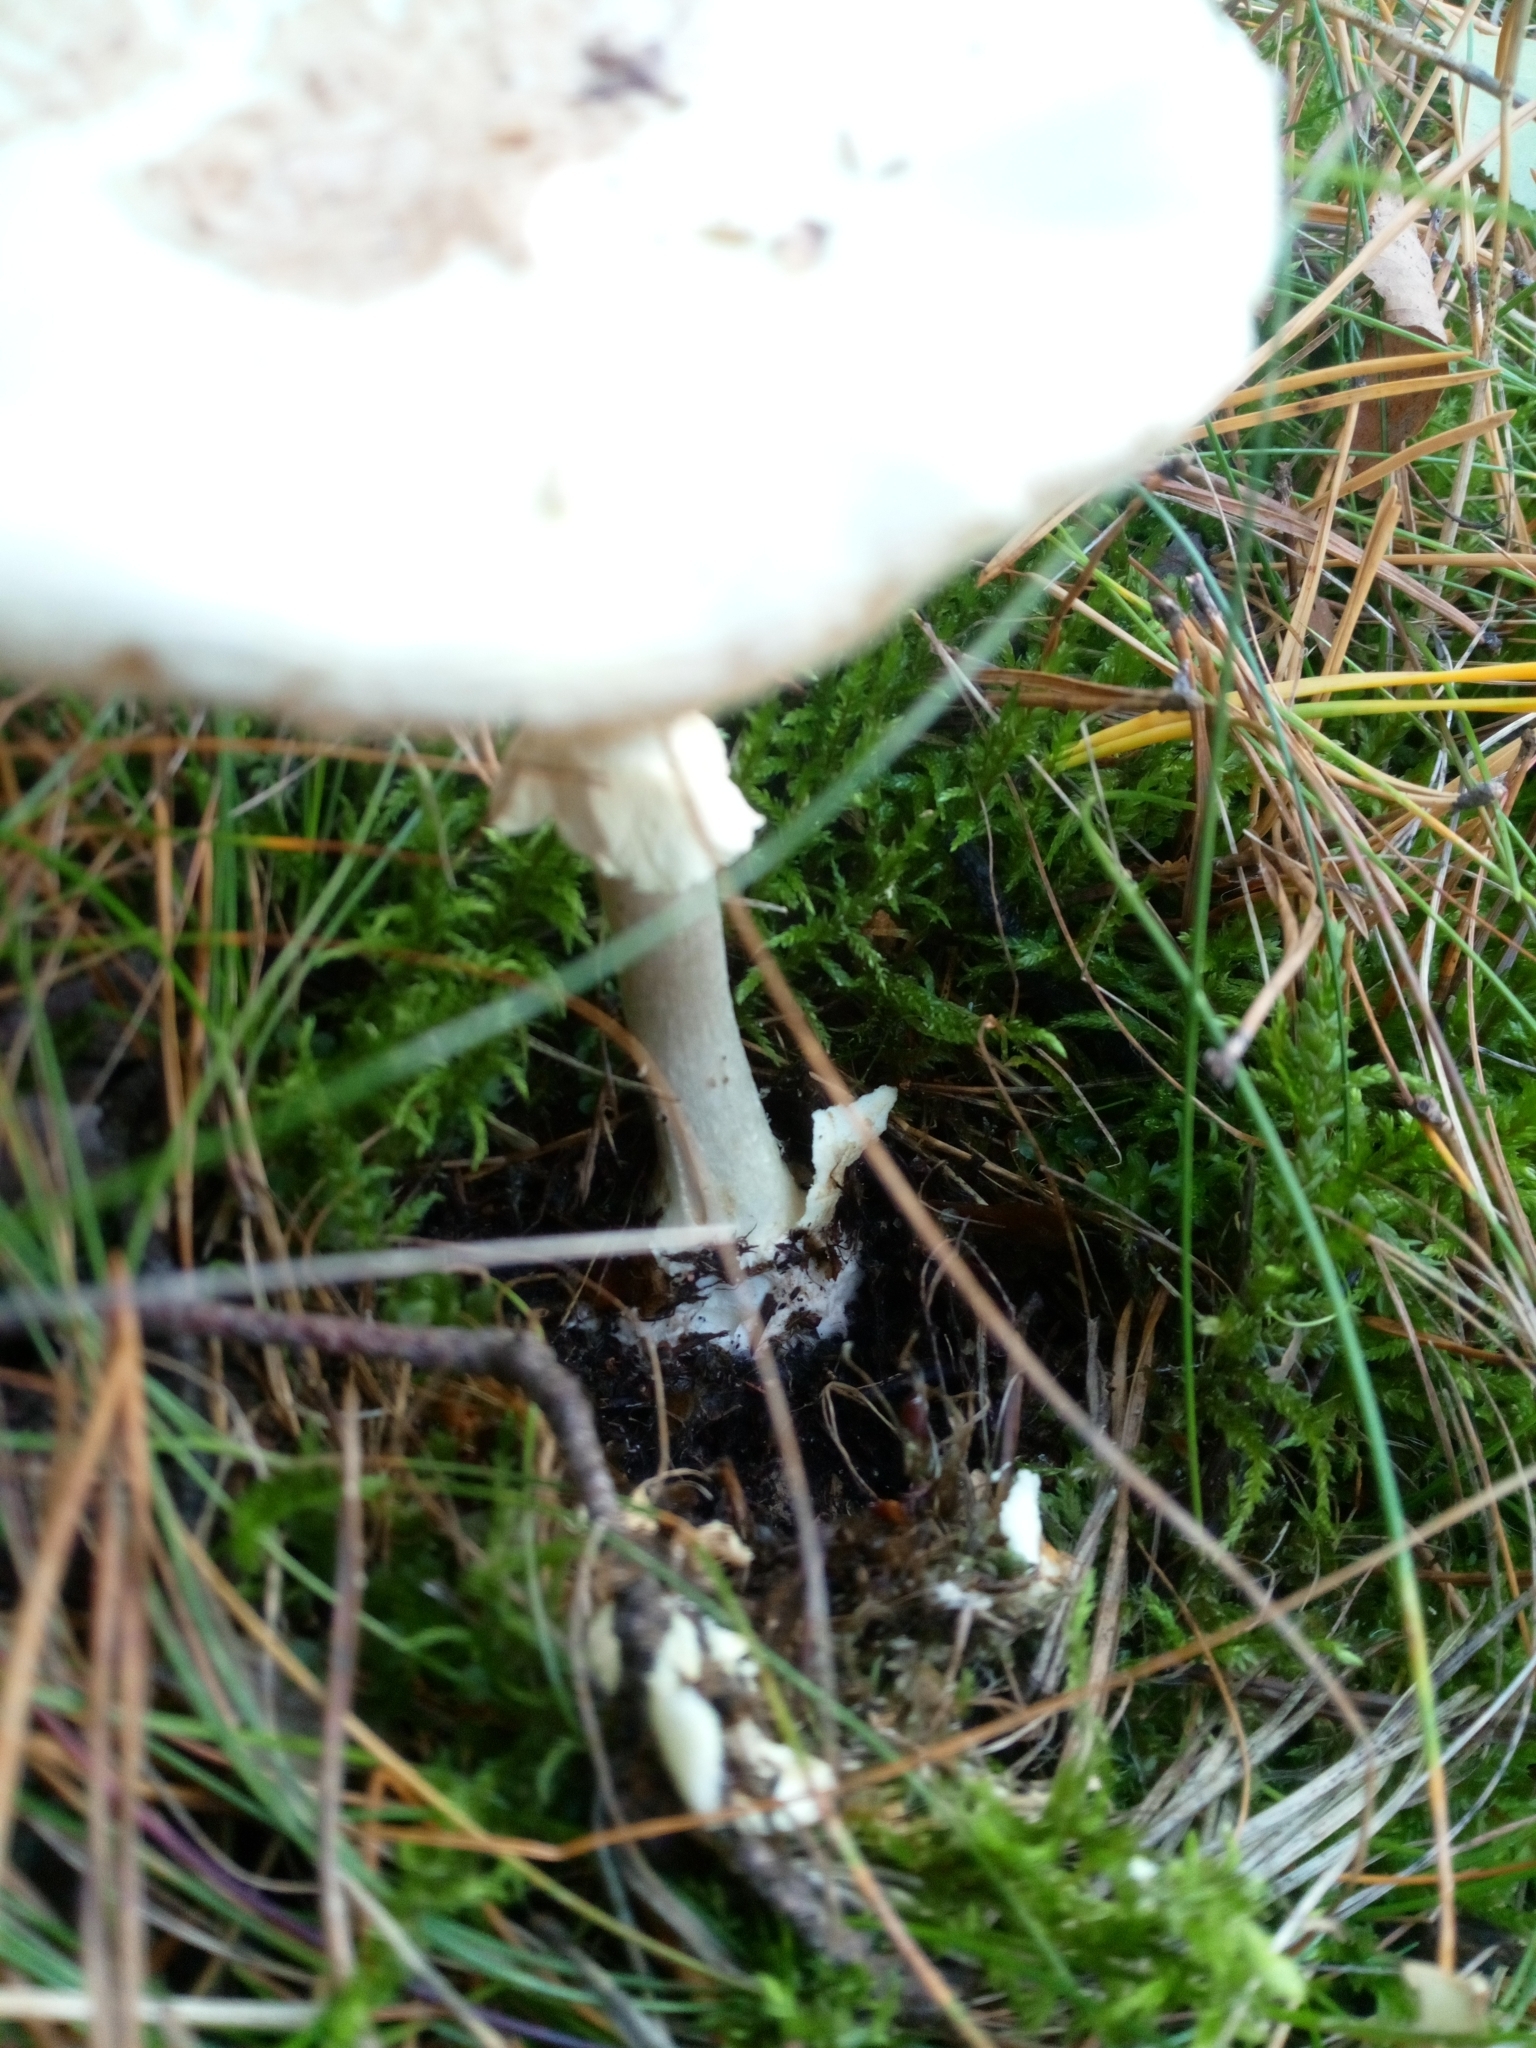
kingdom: Fungi
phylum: Basidiomycota
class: Agaricomycetes
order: Agaricales
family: Amanitaceae
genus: Amanita
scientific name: Amanita citrina
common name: False death-cap
